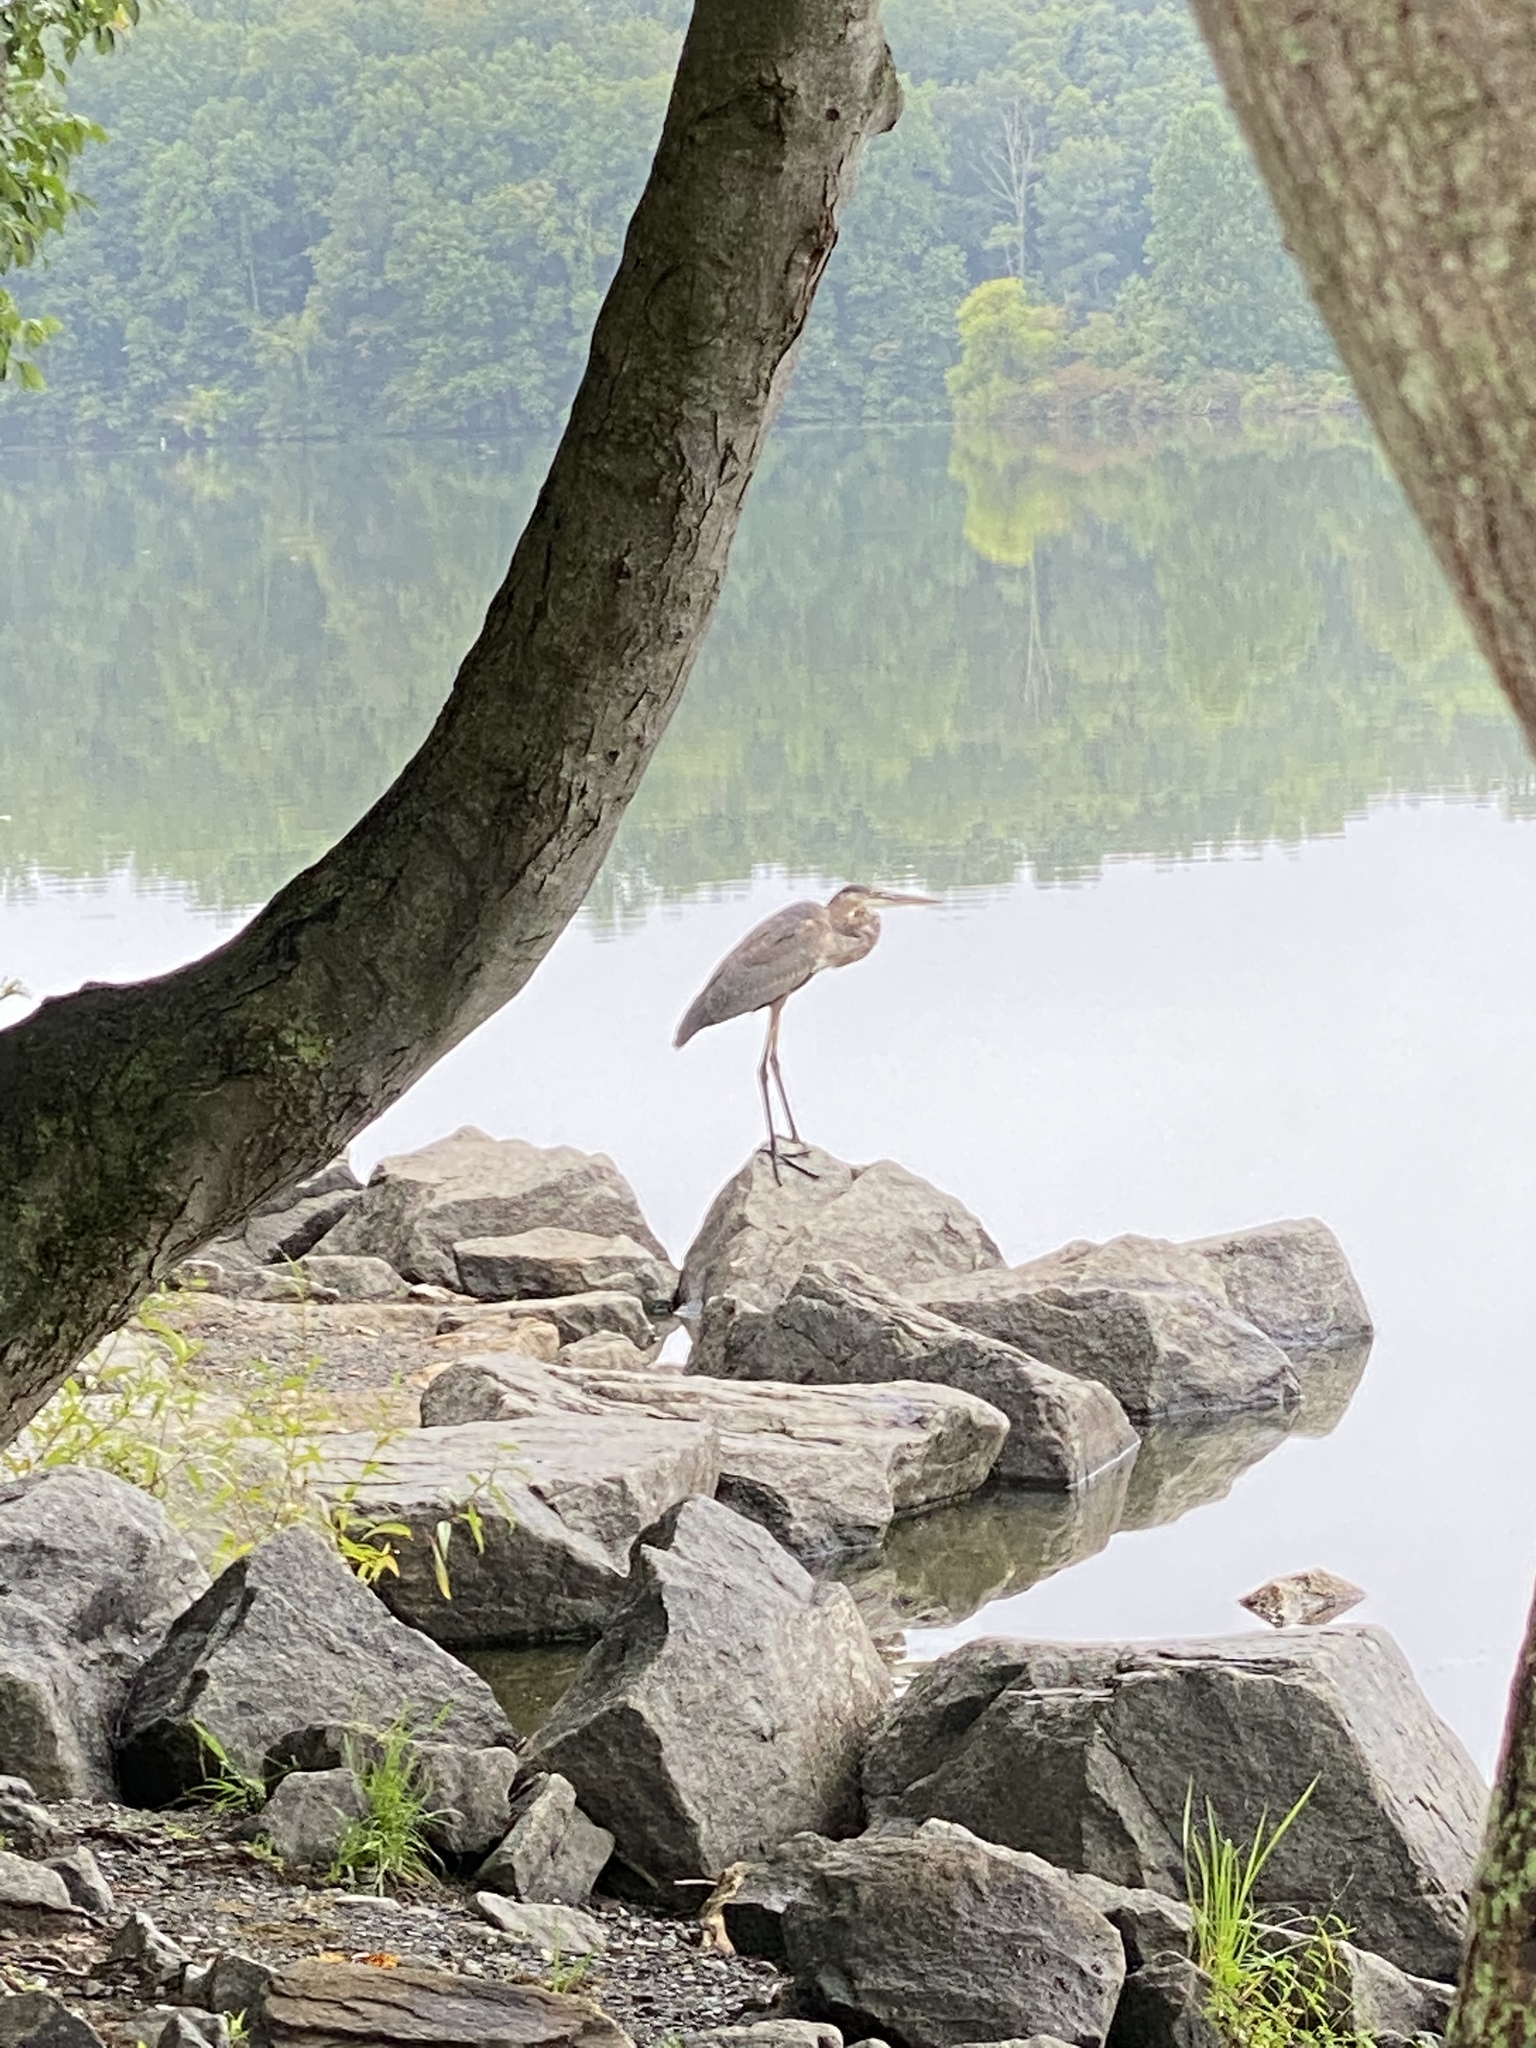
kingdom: Animalia
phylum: Chordata
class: Aves
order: Pelecaniformes
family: Ardeidae
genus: Ardea
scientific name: Ardea herodias
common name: Great blue heron
